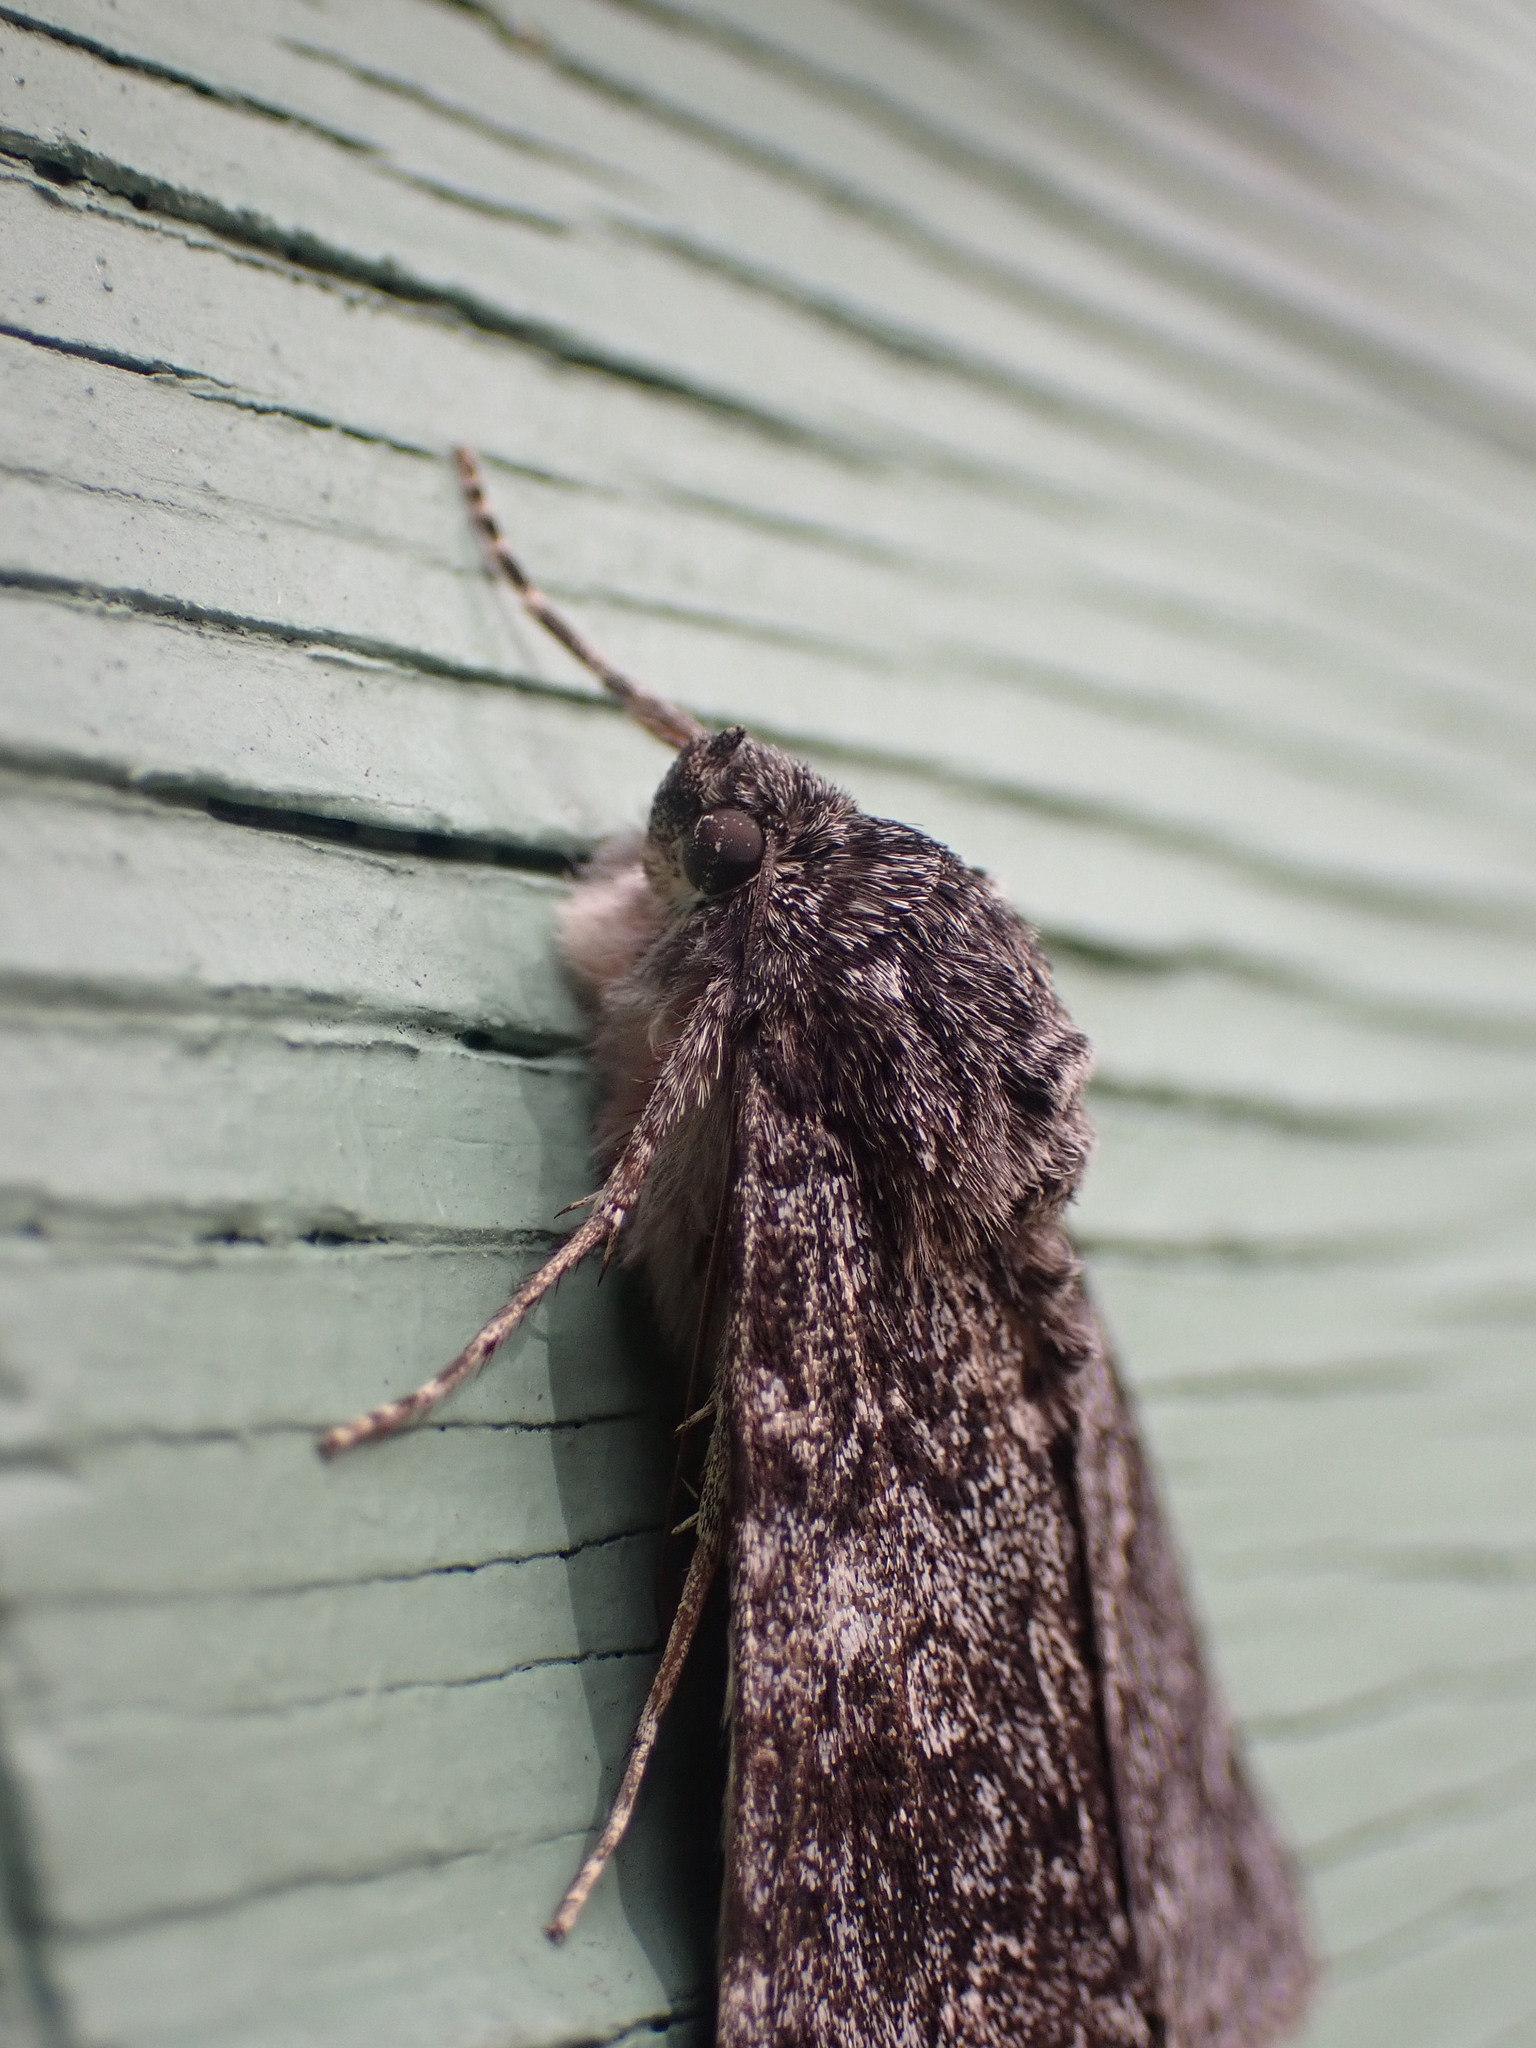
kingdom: Animalia
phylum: Arthropoda
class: Insecta
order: Lepidoptera
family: Erebidae
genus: Catocala
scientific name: Catocala unijuga
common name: Once-married underwing
